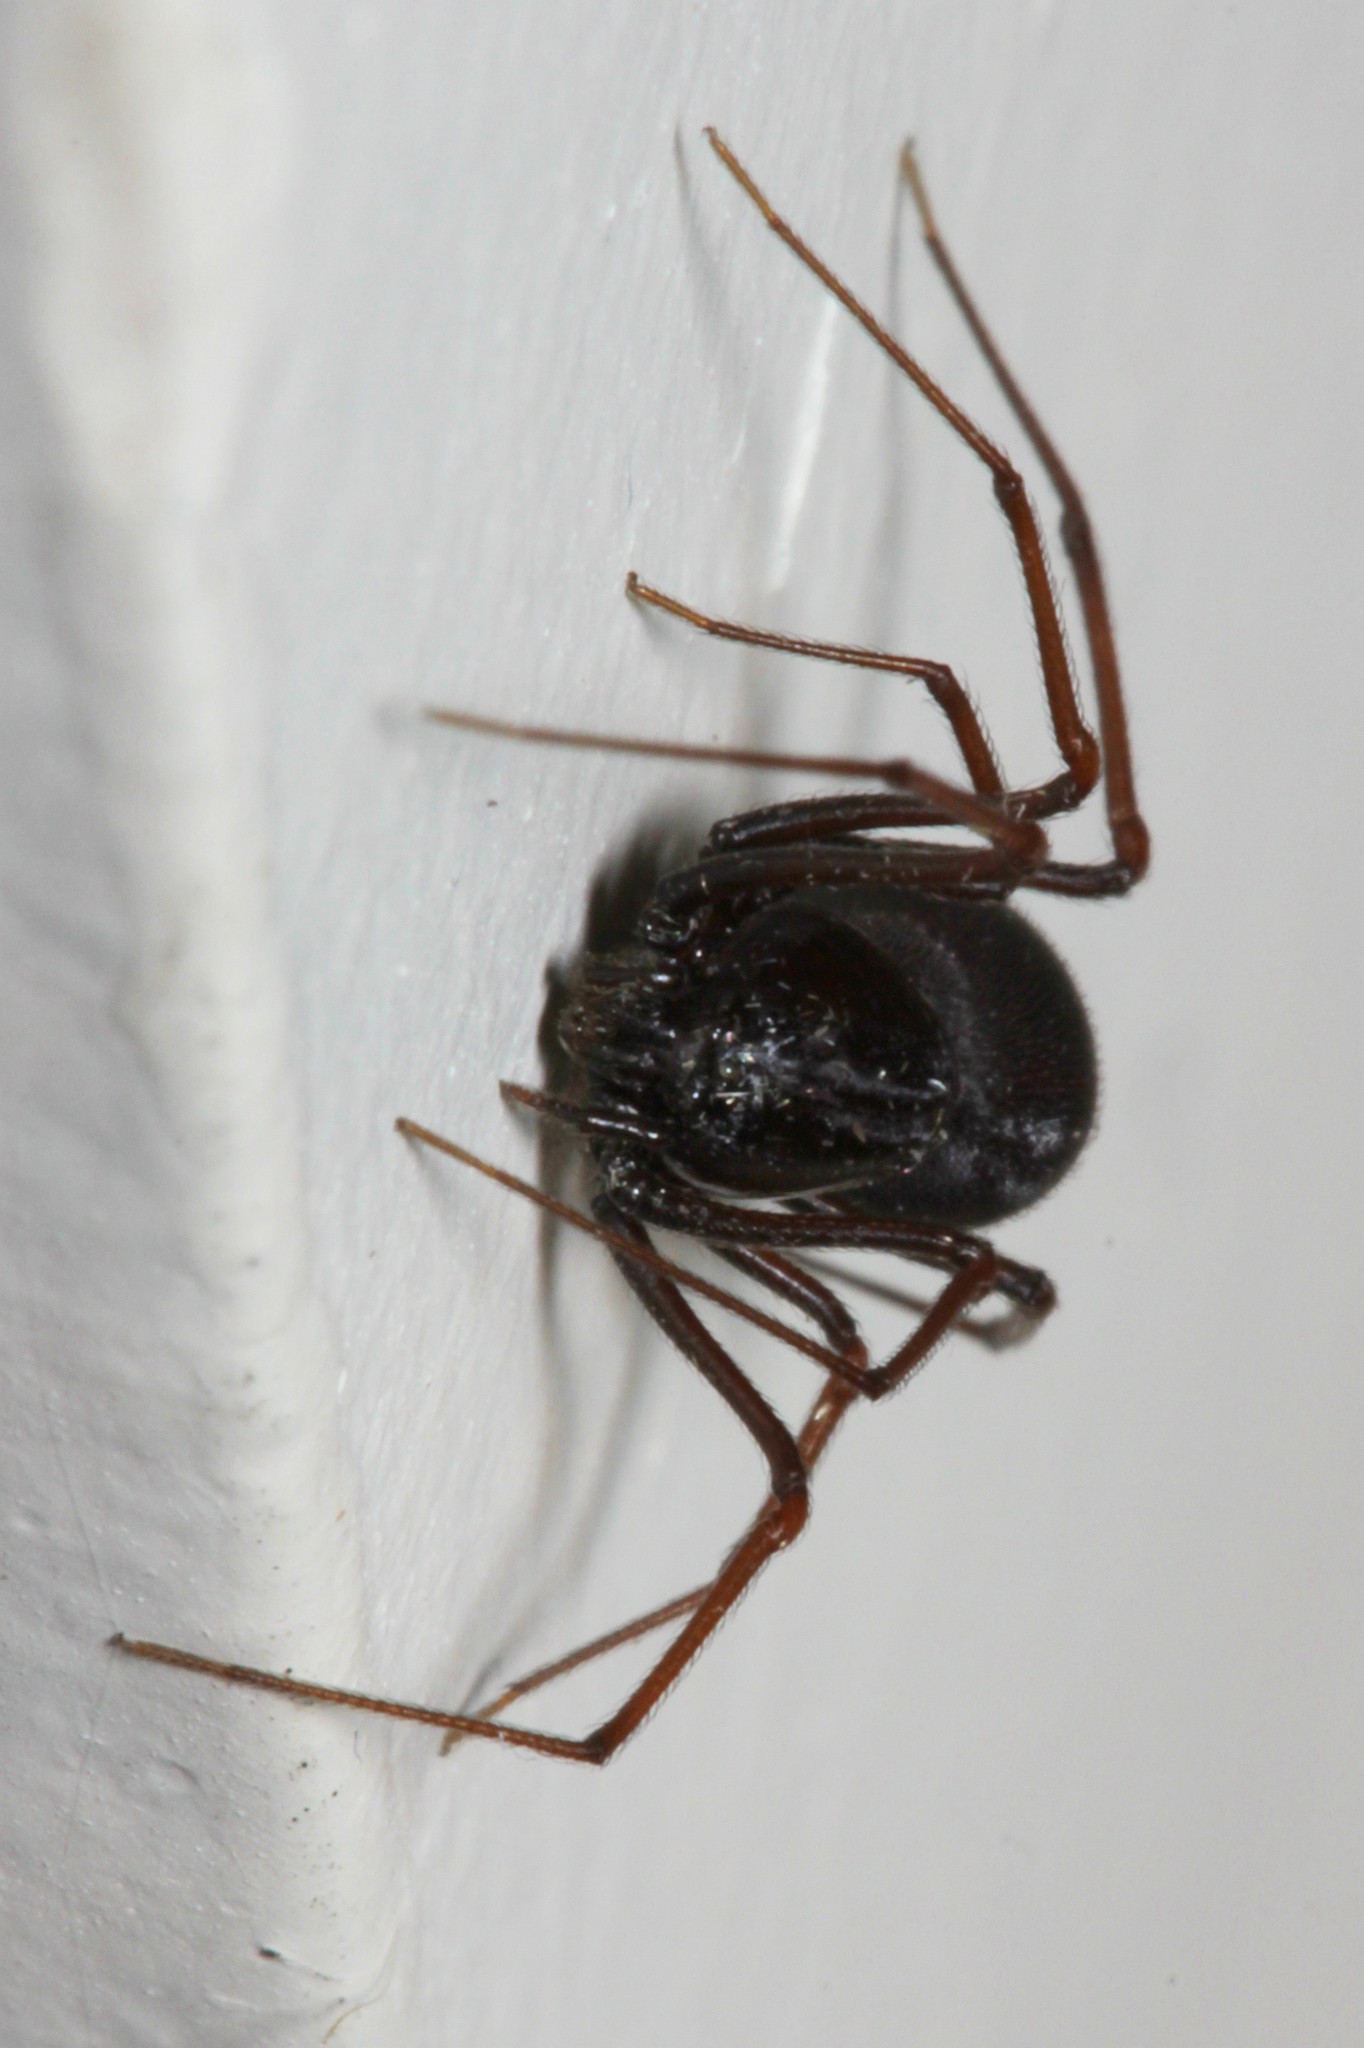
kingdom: Animalia
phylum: Arthropoda
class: Arachnida
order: Araneae
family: Scytodidae
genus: Scytodes
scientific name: Scytodes fusca
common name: Spitting spiders
